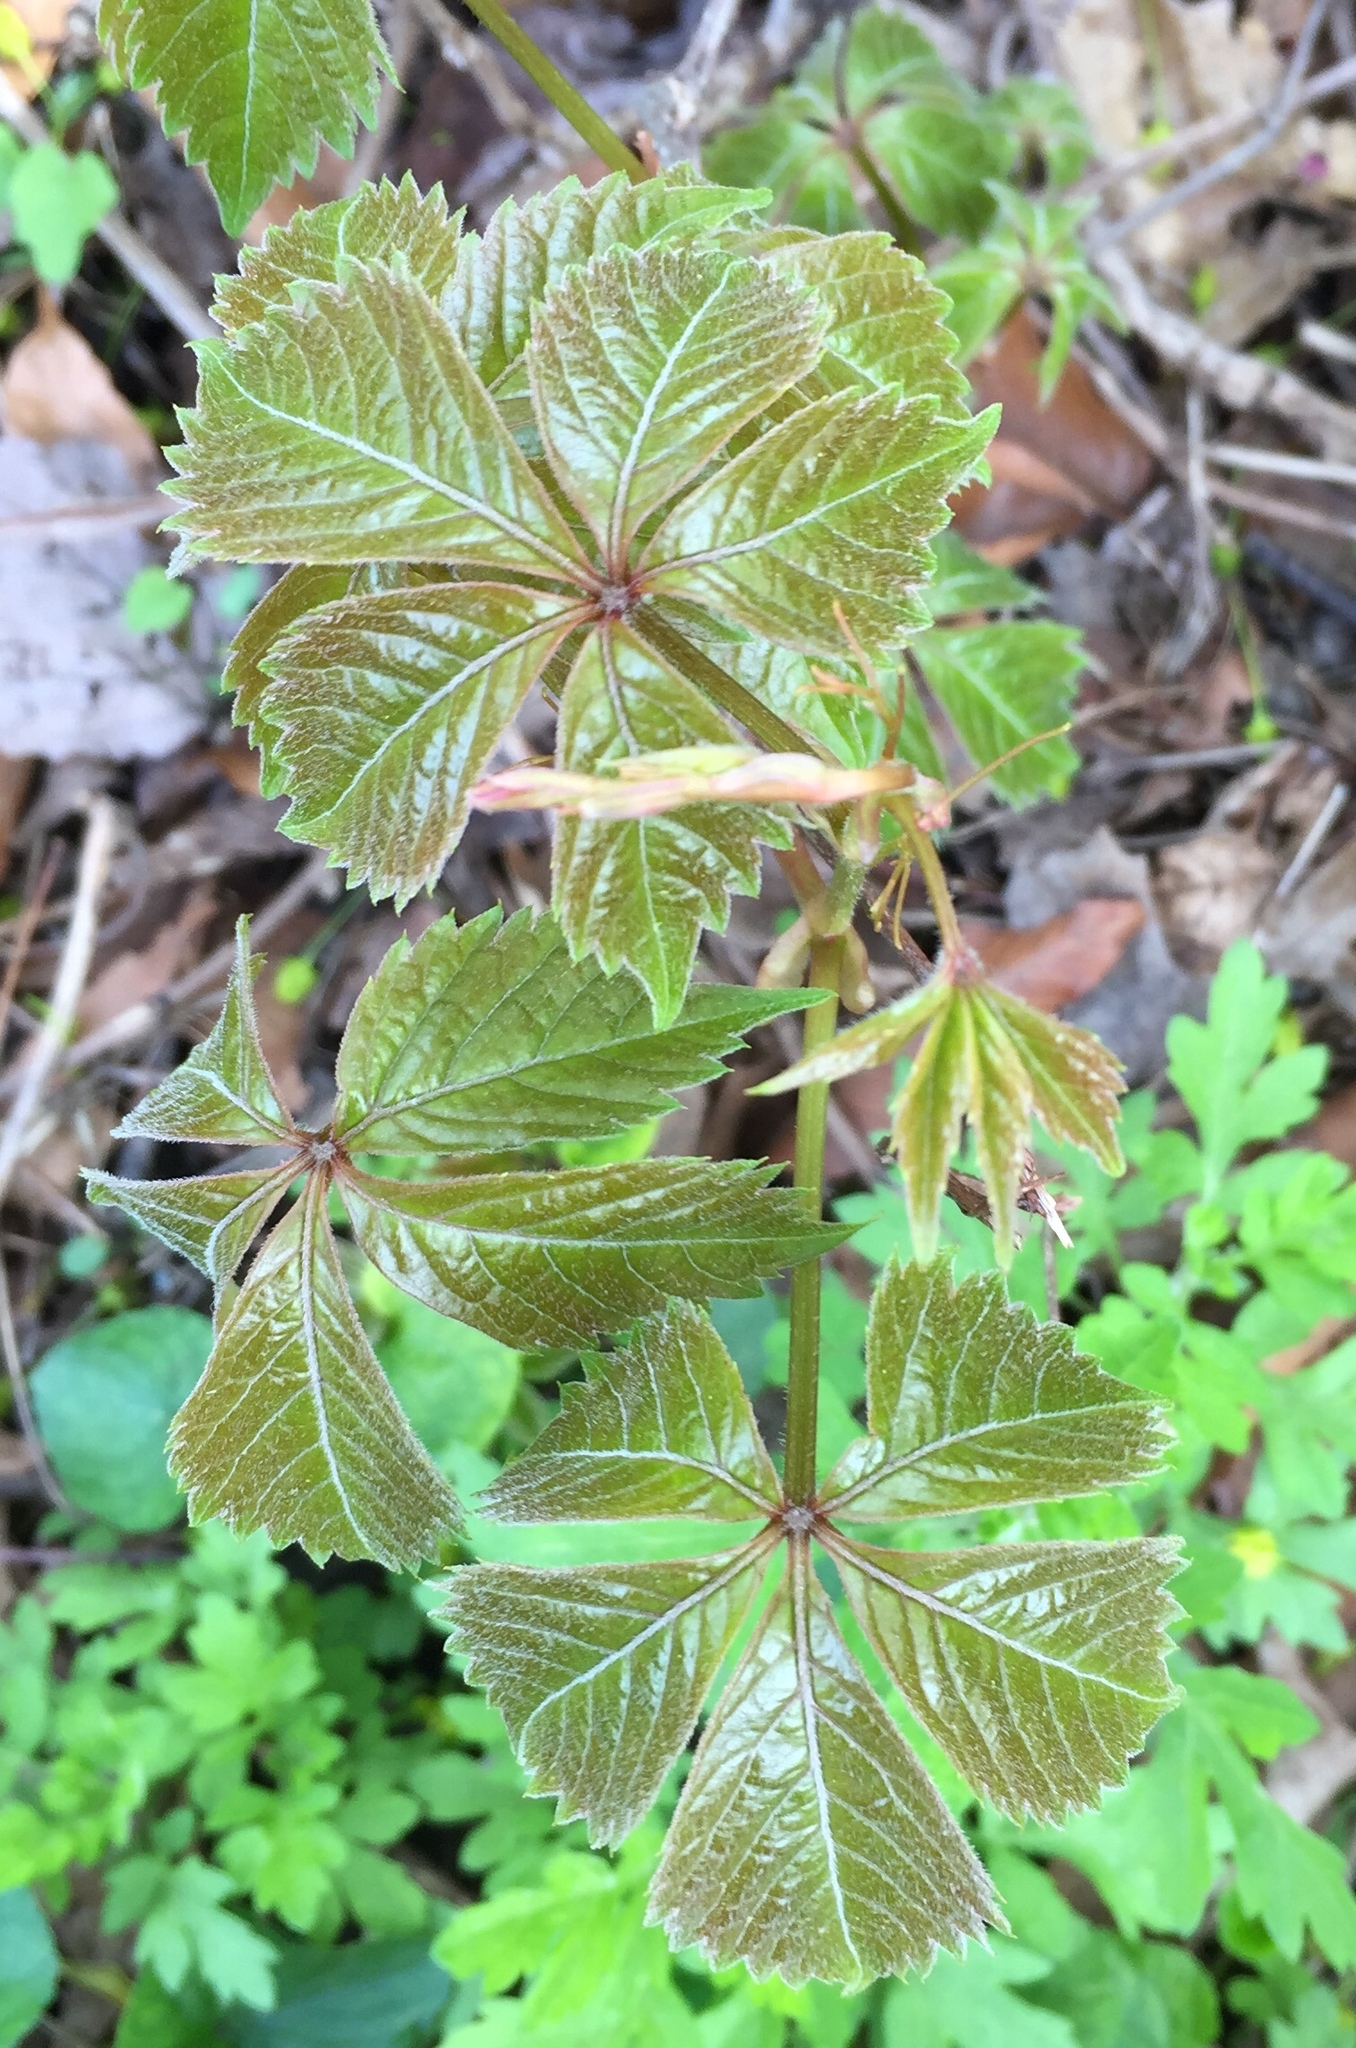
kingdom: Plantae
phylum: Tracheophyta
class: Magnoliopsida
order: Vitales
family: Vitaceae
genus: Parthenocissus
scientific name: Parthenocissus quinquefolia
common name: Virginia-creeper
